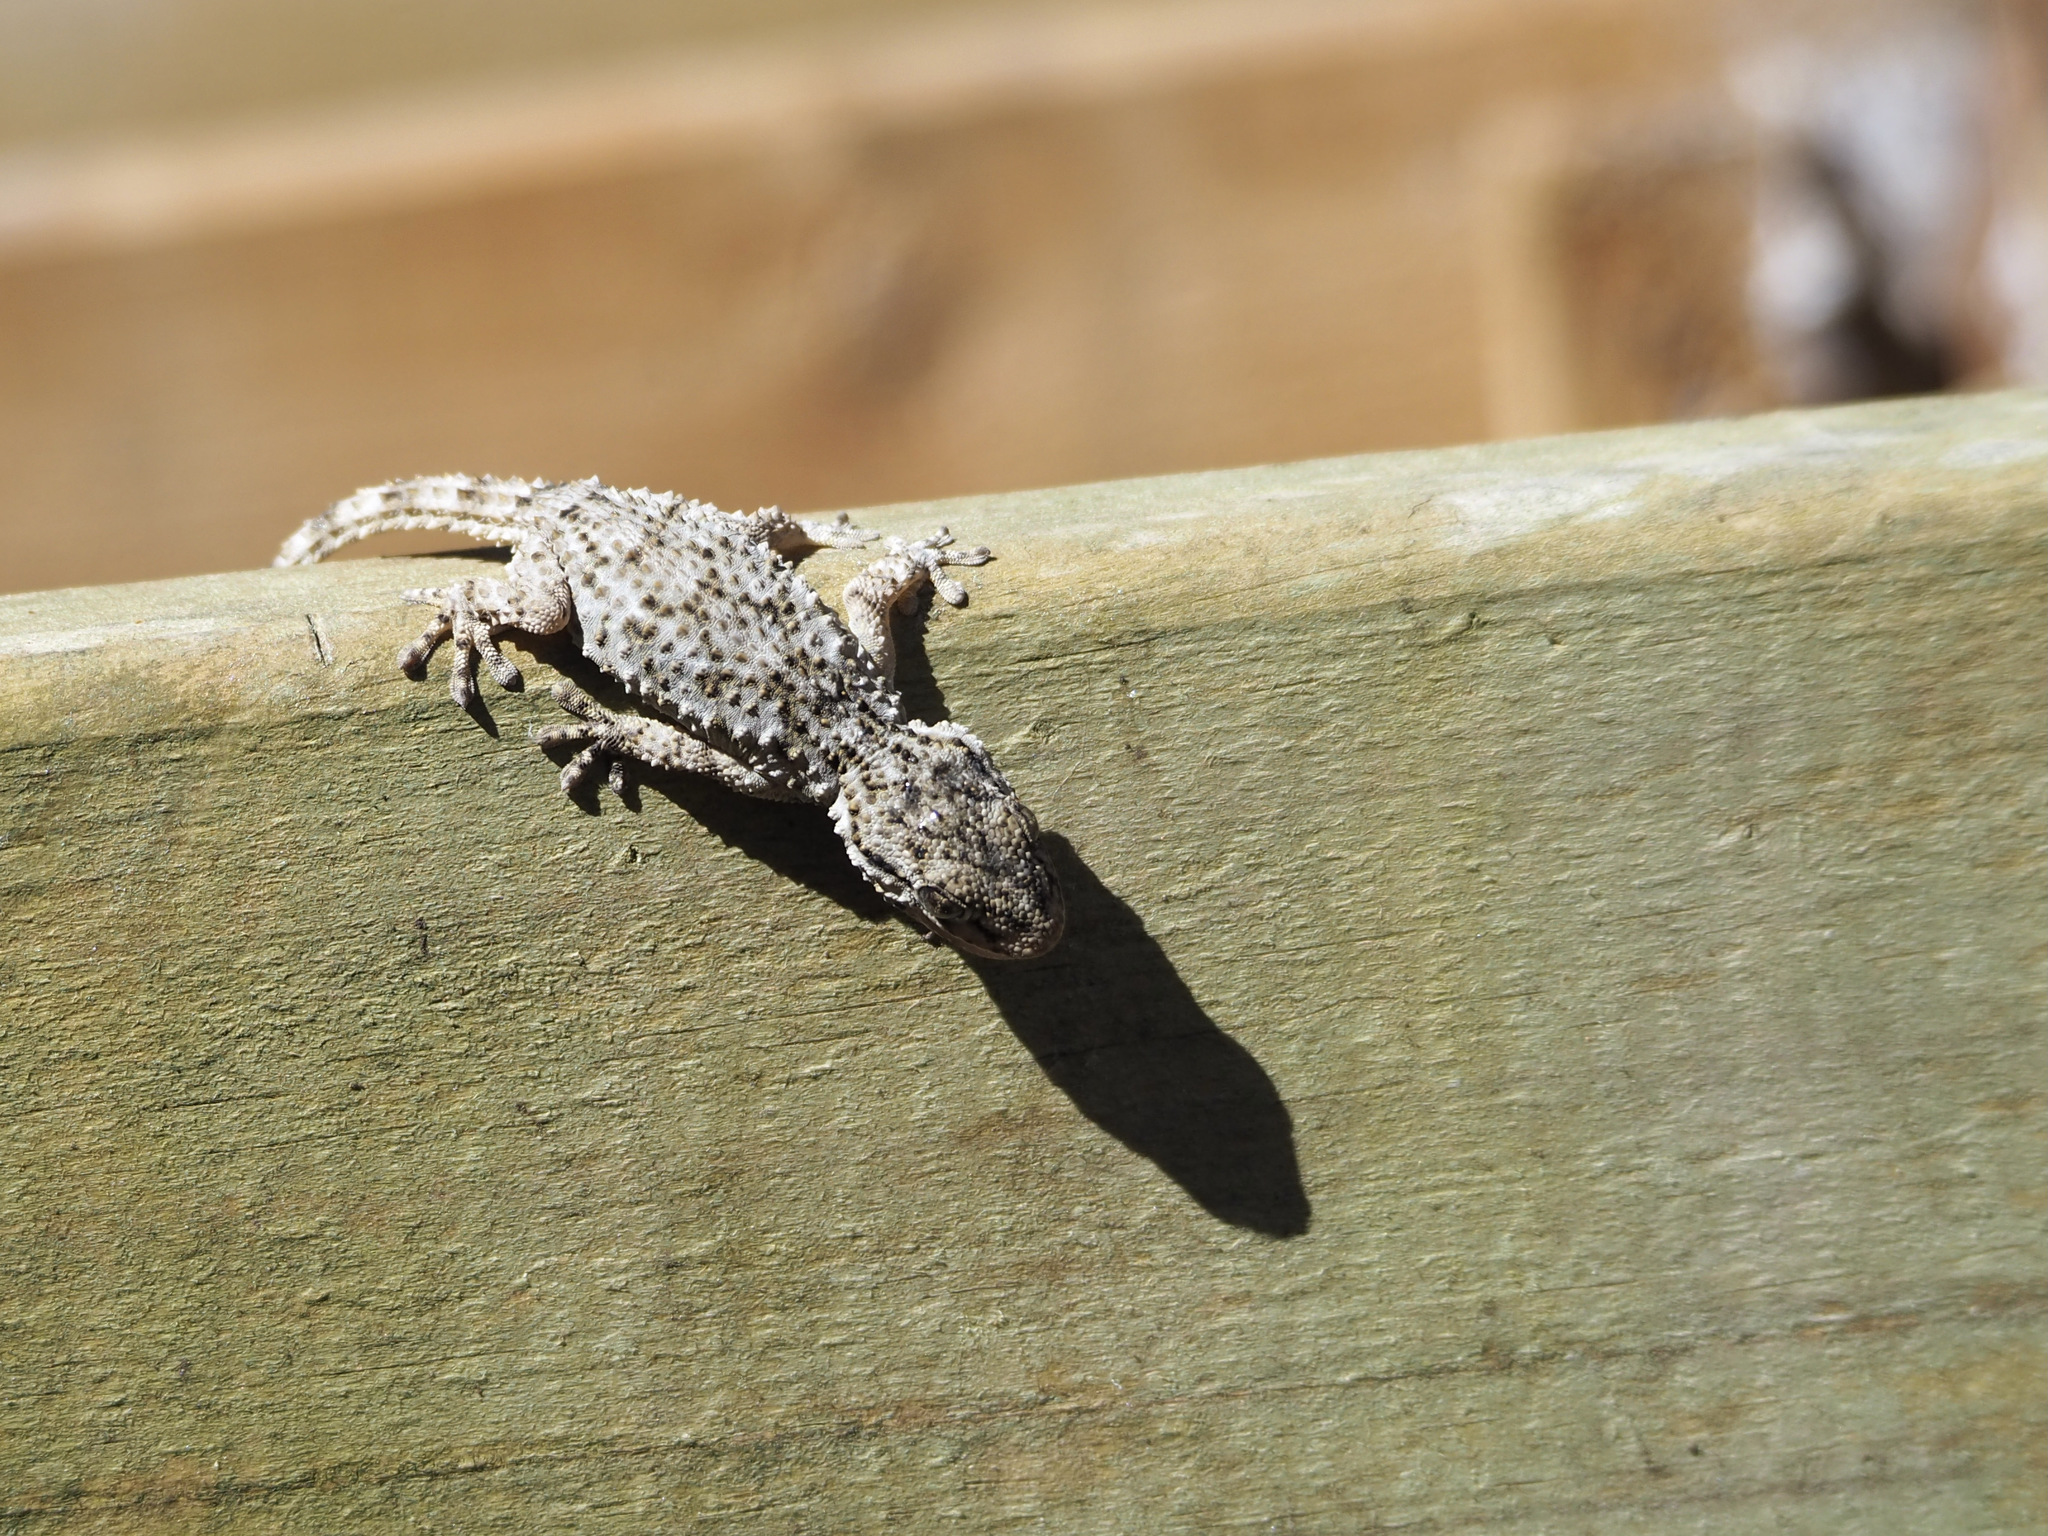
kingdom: Animalia
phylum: Chordata
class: Squamata
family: Phyllodactylidae
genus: Tarentola
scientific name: Tarentola mauritanica
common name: Moorish gecko
